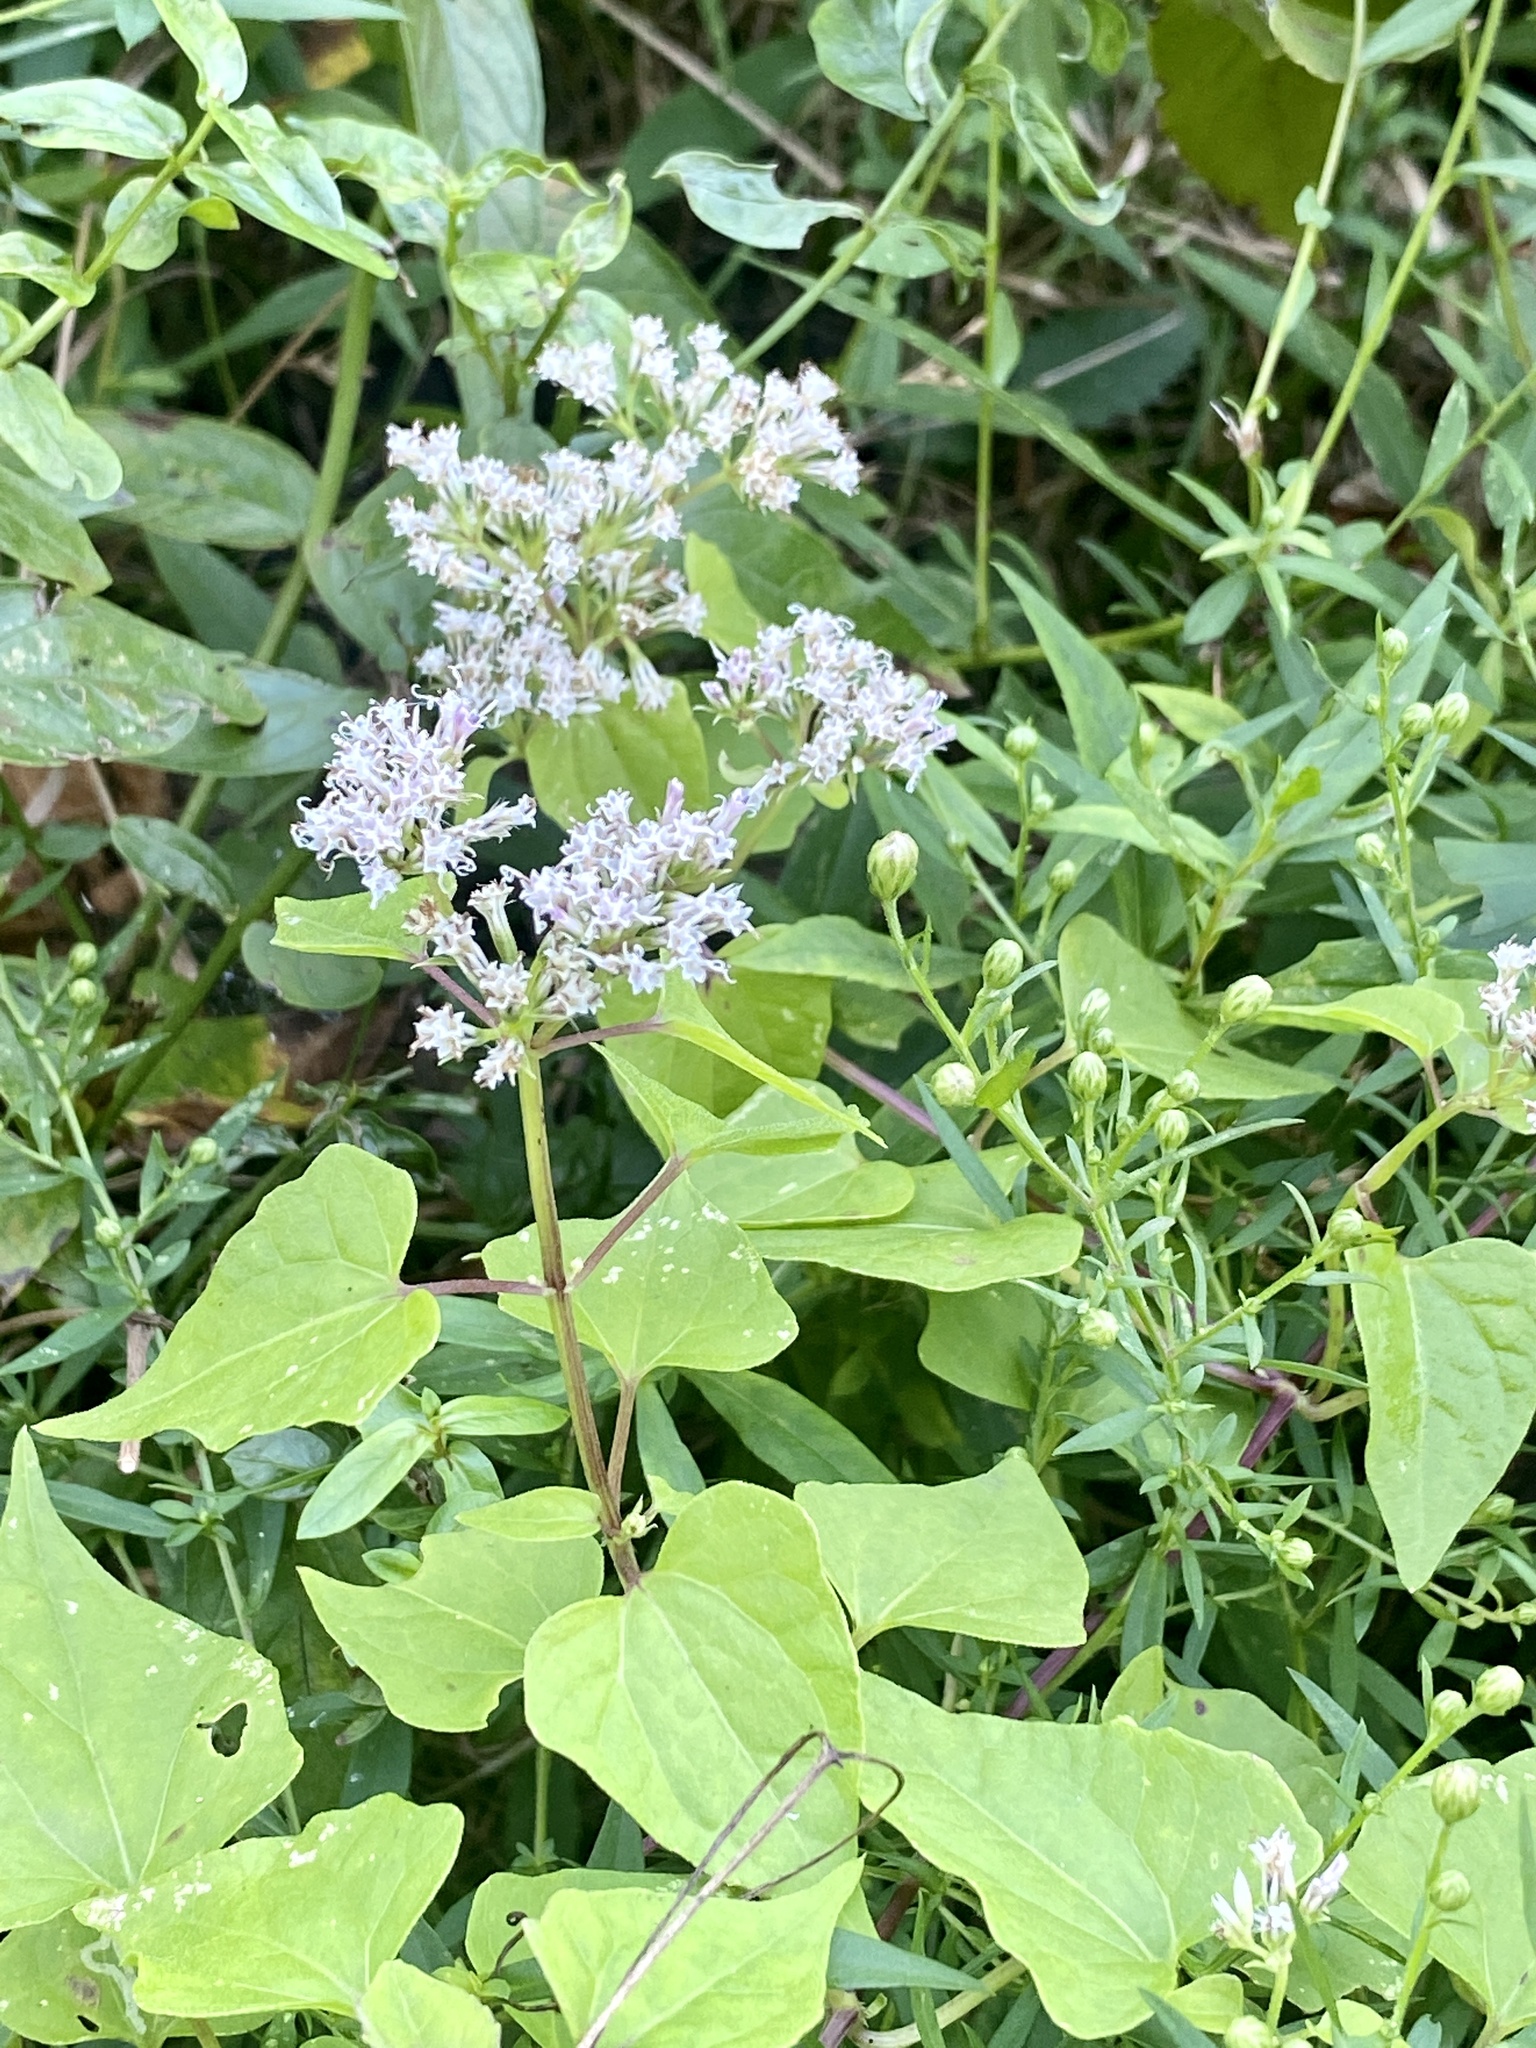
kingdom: Plantae
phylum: Tracheophyta
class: Magnoliopsida
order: Asterales
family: Asteraceae
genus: Mikania
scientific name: Mikania scandens
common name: Climbing hempvine
